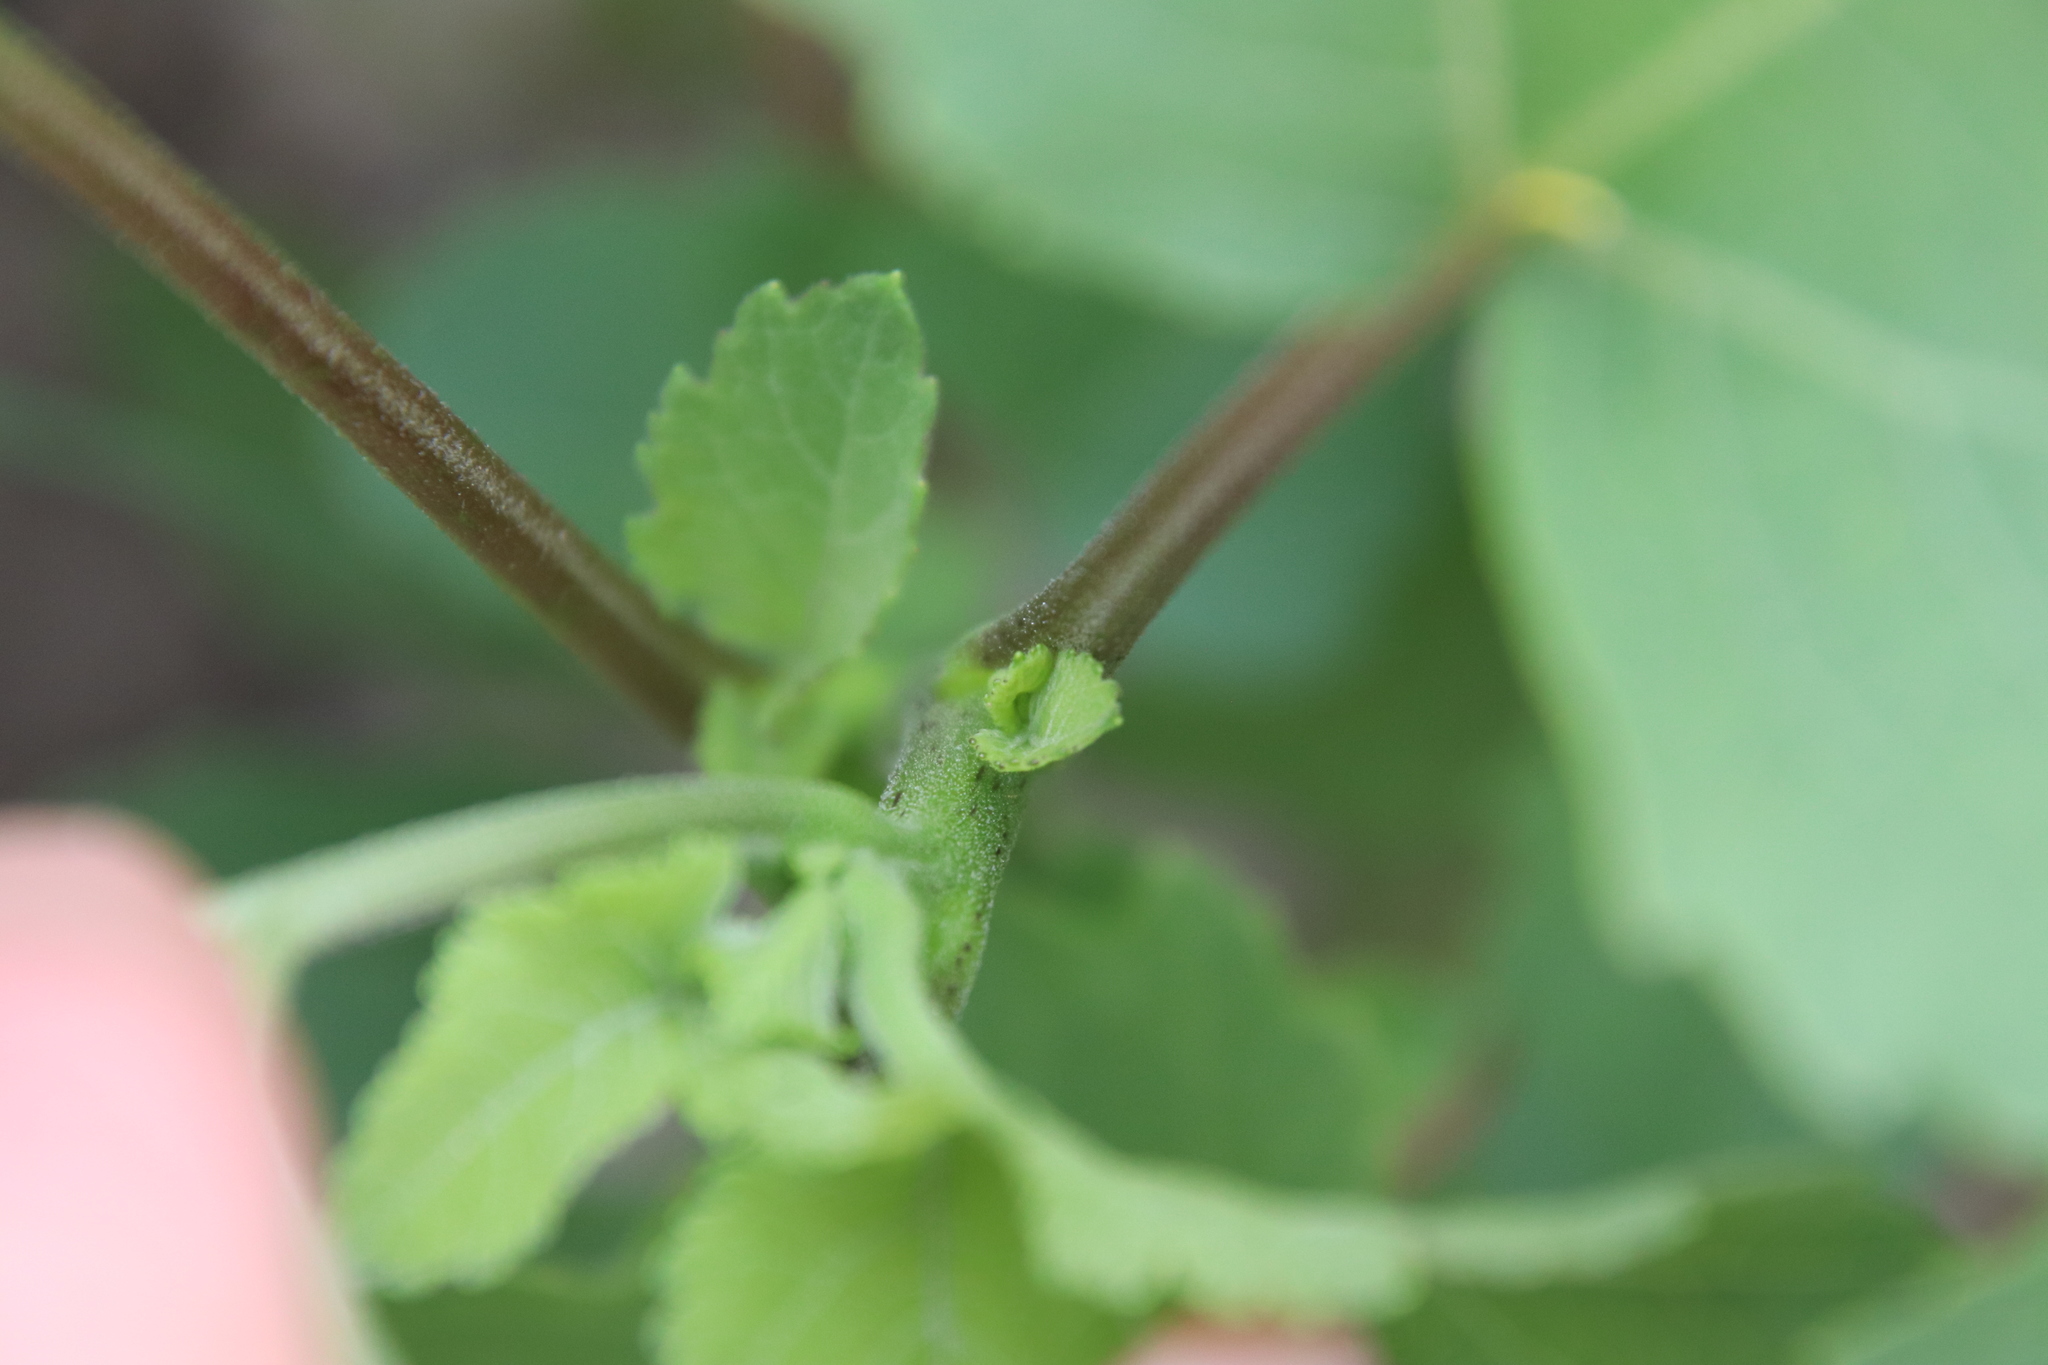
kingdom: Plantae
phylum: Tracheophyta
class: Magnoliopsida
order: Asterales
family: Asteraceae
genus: Xanthium
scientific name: Xanthium strumarium
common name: Rough cocklebur
